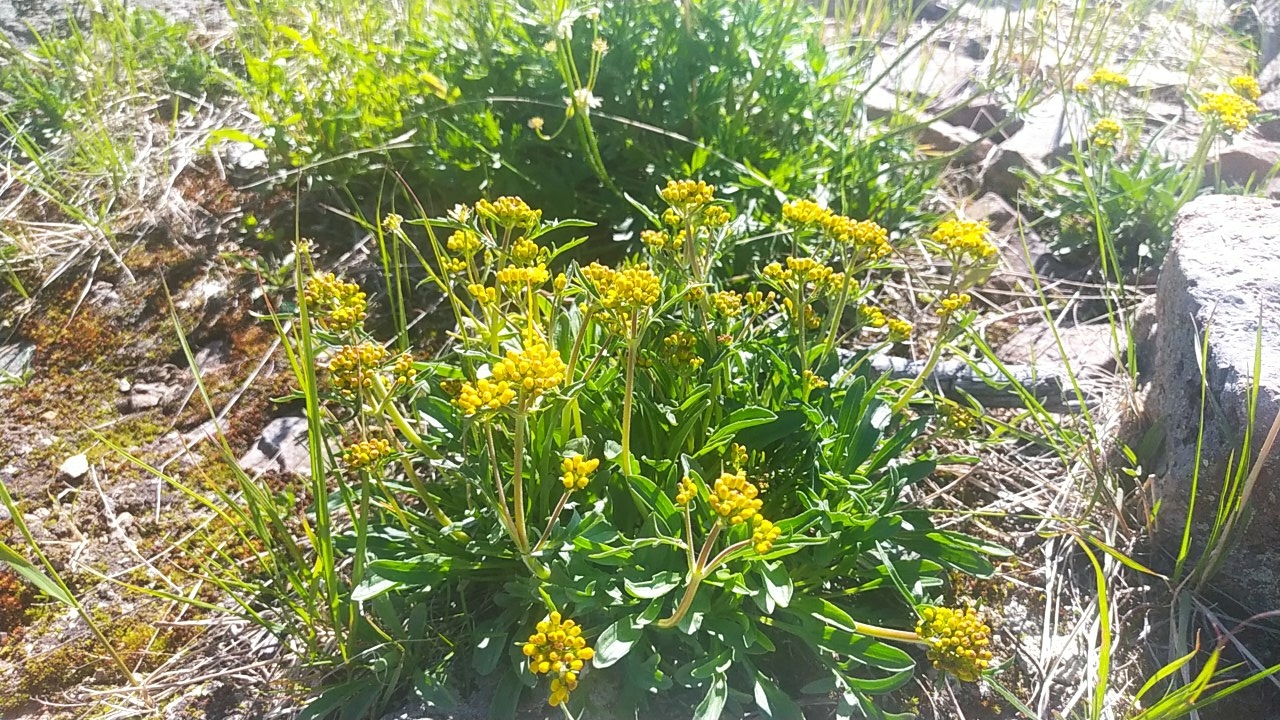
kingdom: Plantae
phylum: Tracheophyta
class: Magnoliopsida
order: Dipsacales
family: Caprifoliaceae
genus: Patrinia
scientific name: Patrinia rupestris
